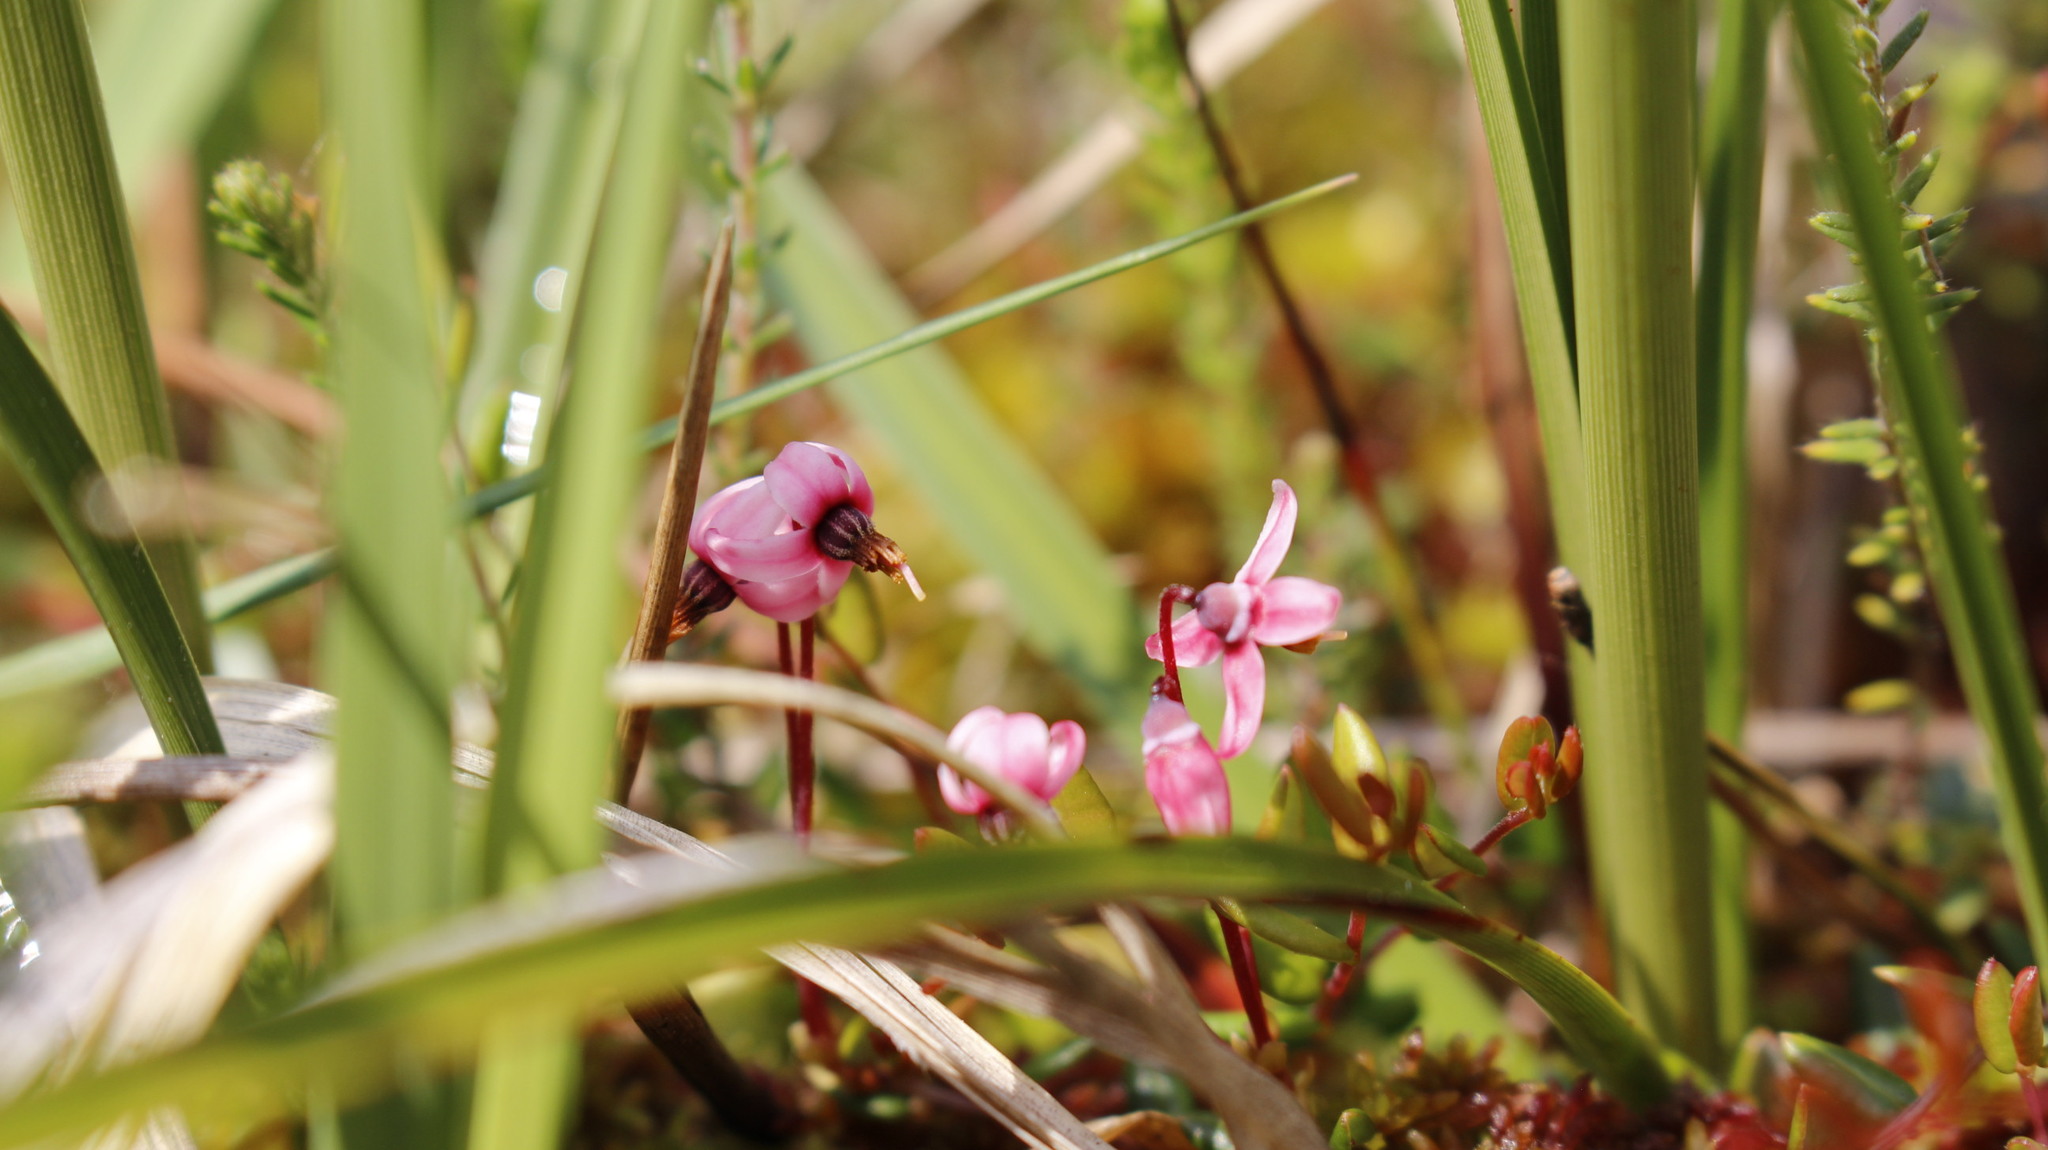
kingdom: Plantae
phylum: Tracheophyta
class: Magnoliopsida
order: Ericales
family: Ericaceae
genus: Vaccinium
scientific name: Vaccinium oxycoccos
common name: Cranberry
